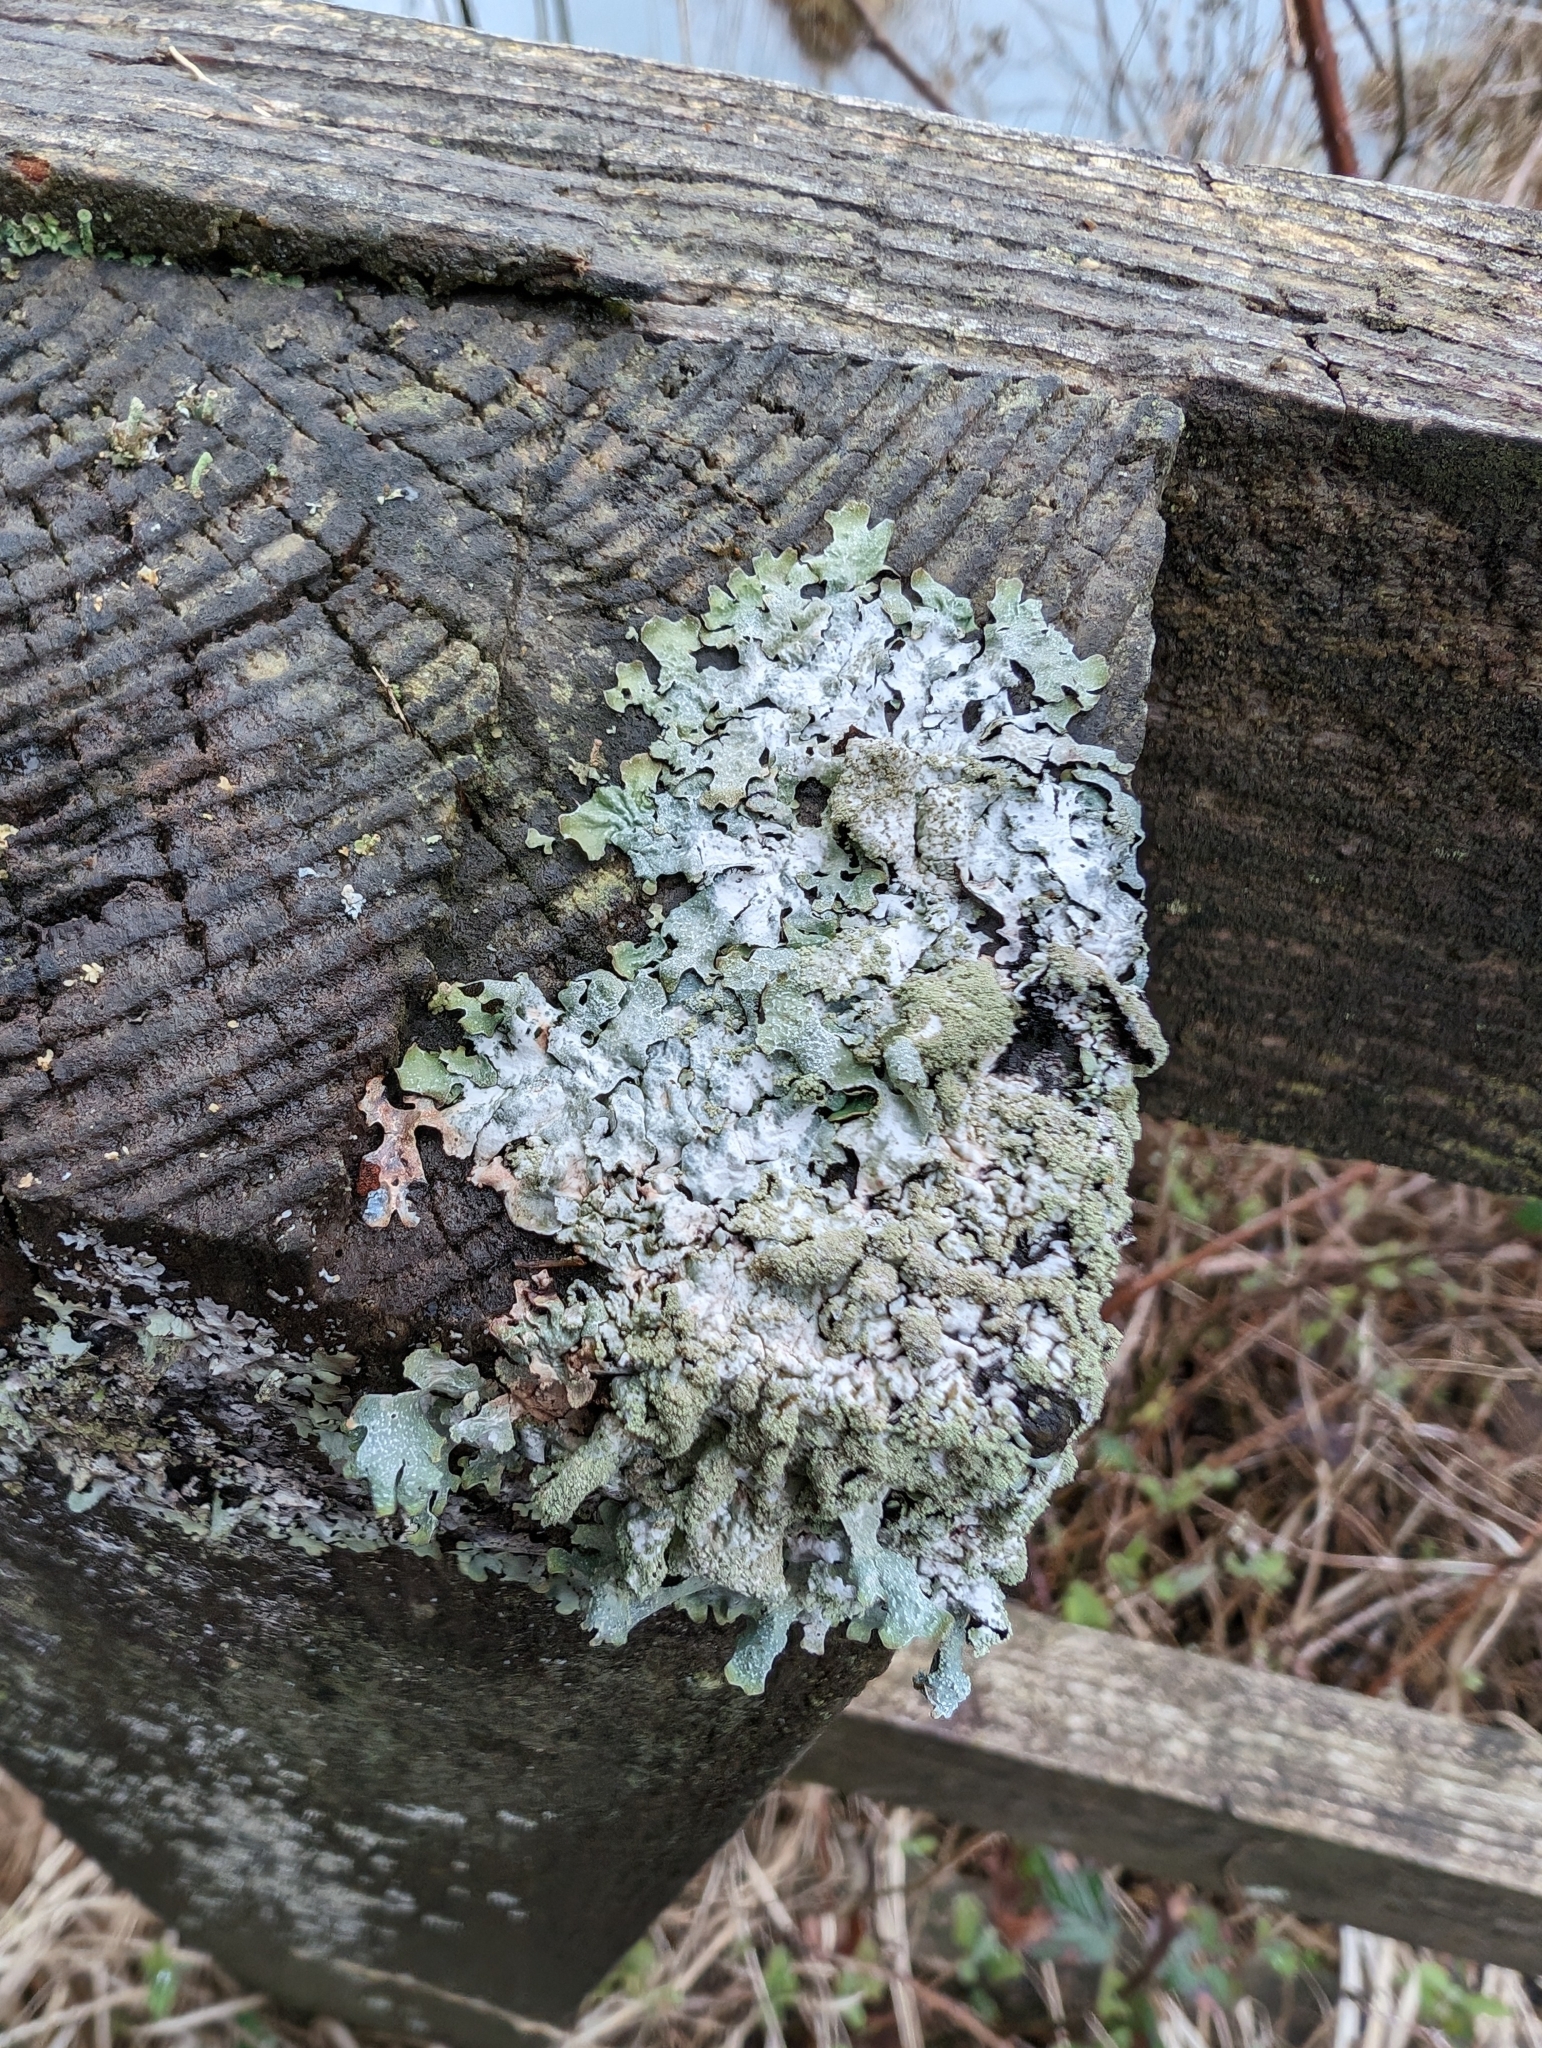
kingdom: Fungi
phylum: Ascomycota
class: Lecanoromycetes
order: Lecanorales
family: Parmeliaceae
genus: Parmelia
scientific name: Parmelia sulcata
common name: Netted shield lichen
